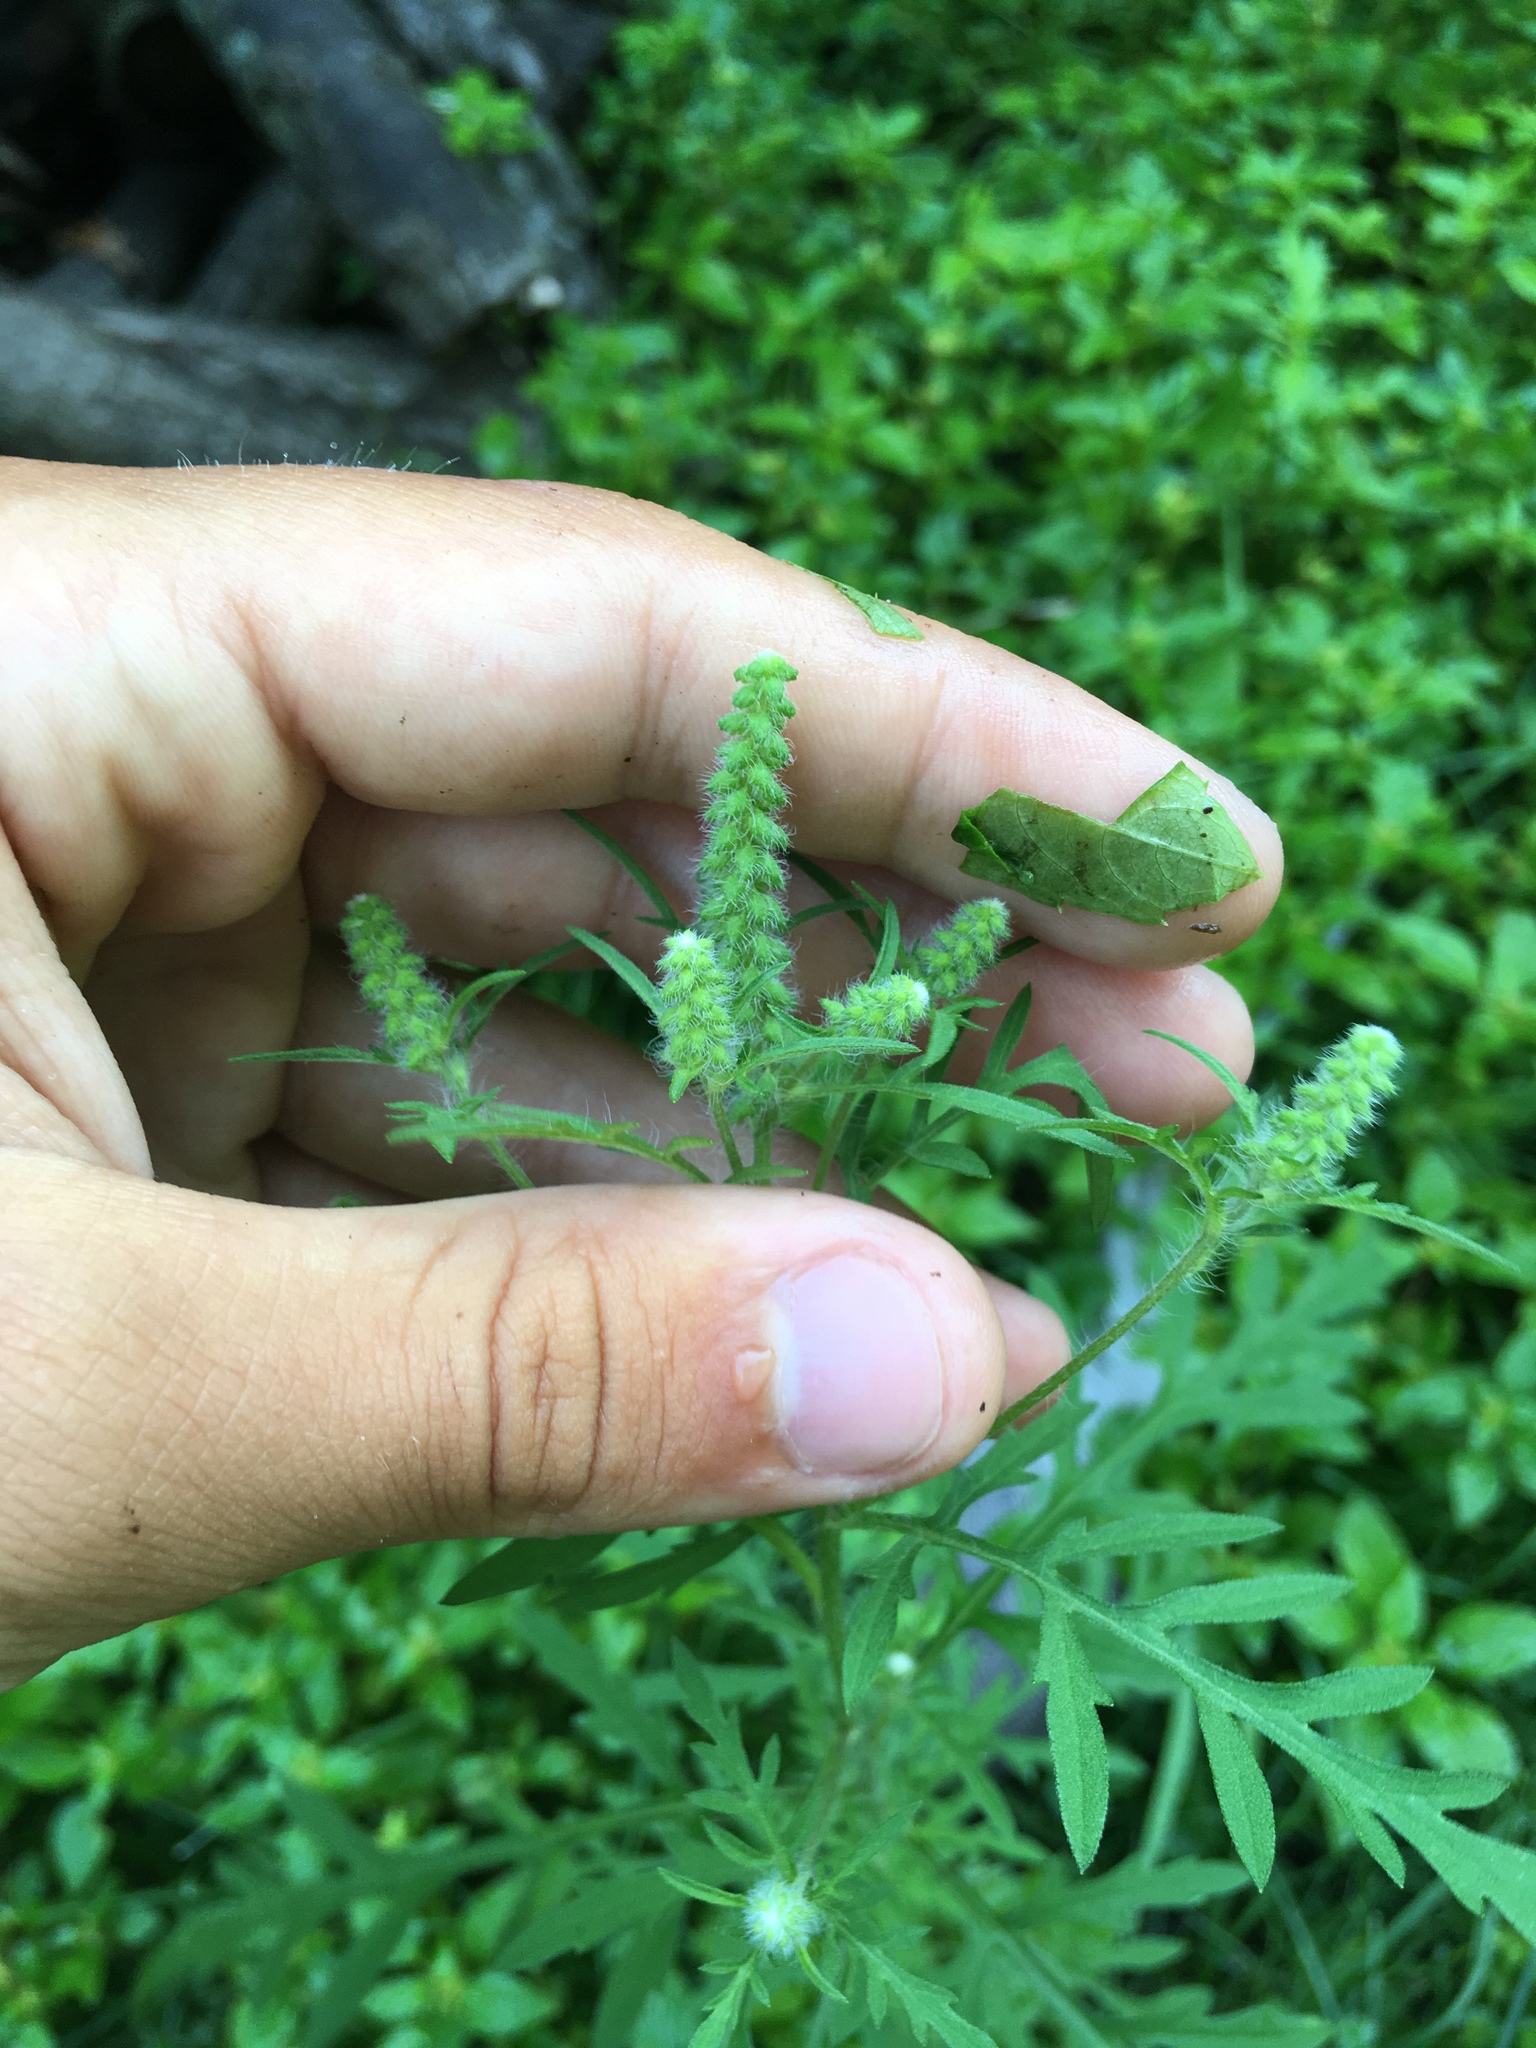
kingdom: Plantae
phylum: Tracheophyta
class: Magnoliopsida
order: Asterales
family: Asteraceae
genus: Ambrosia
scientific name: Ambrosia artemisiifolia
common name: Annual ragweed
